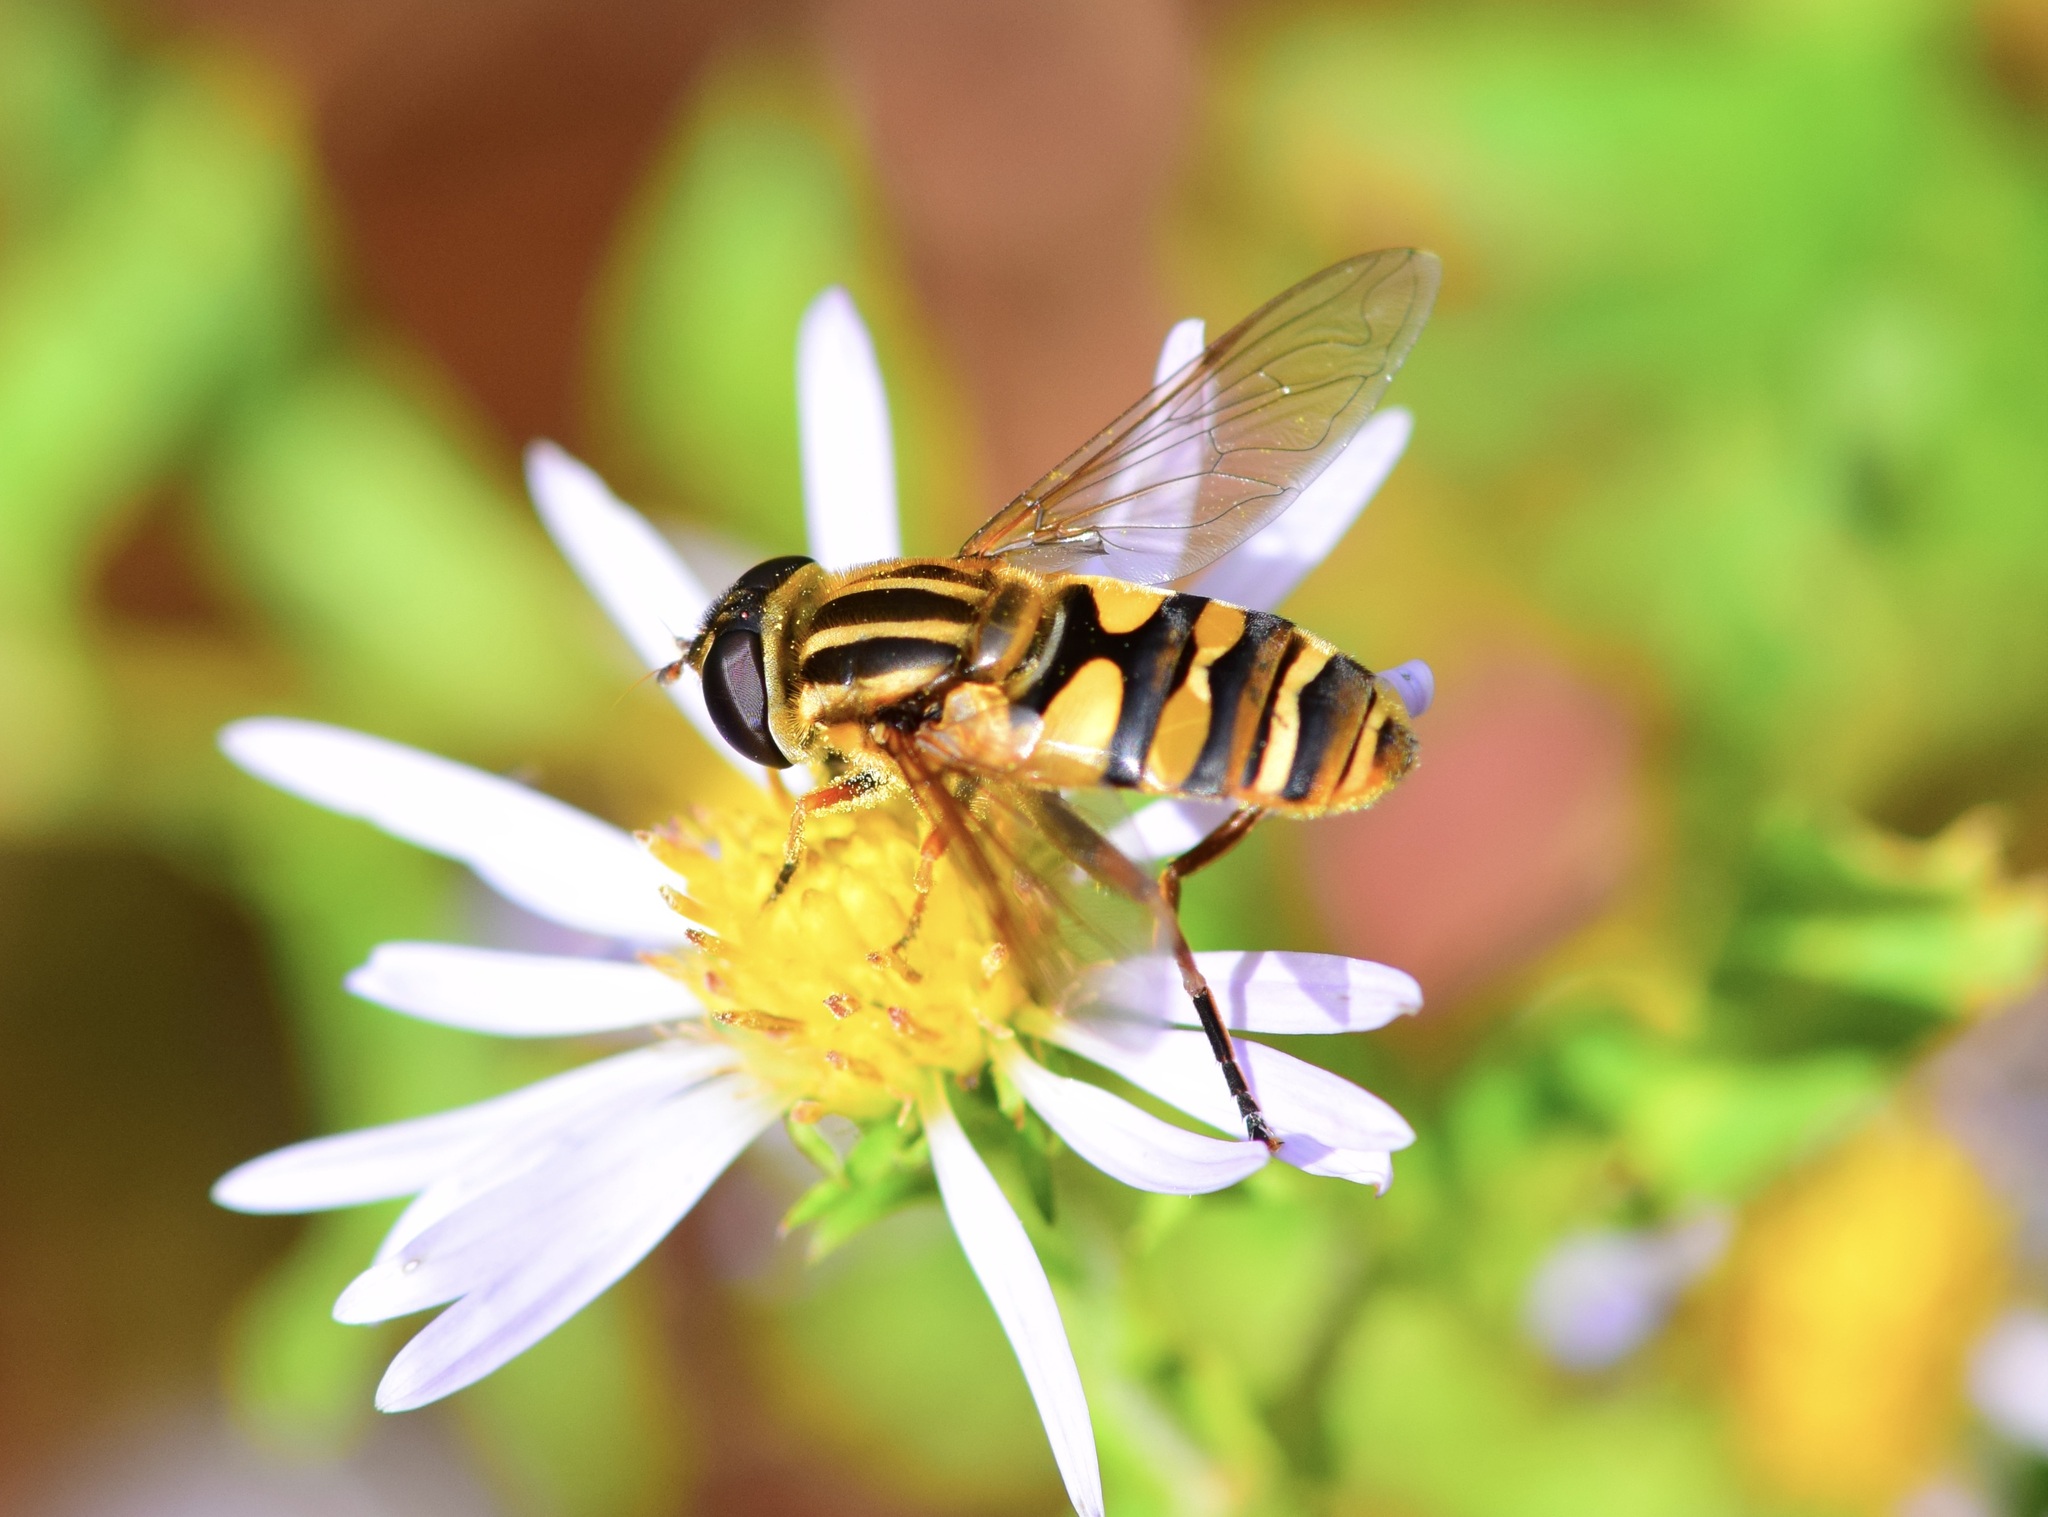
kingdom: Animalia
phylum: Arthropoda
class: Insecta
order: Diptera
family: Syrphidae
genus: Helophilus
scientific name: Helophilus fasciatus
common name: Narrow-headed marsh fly
